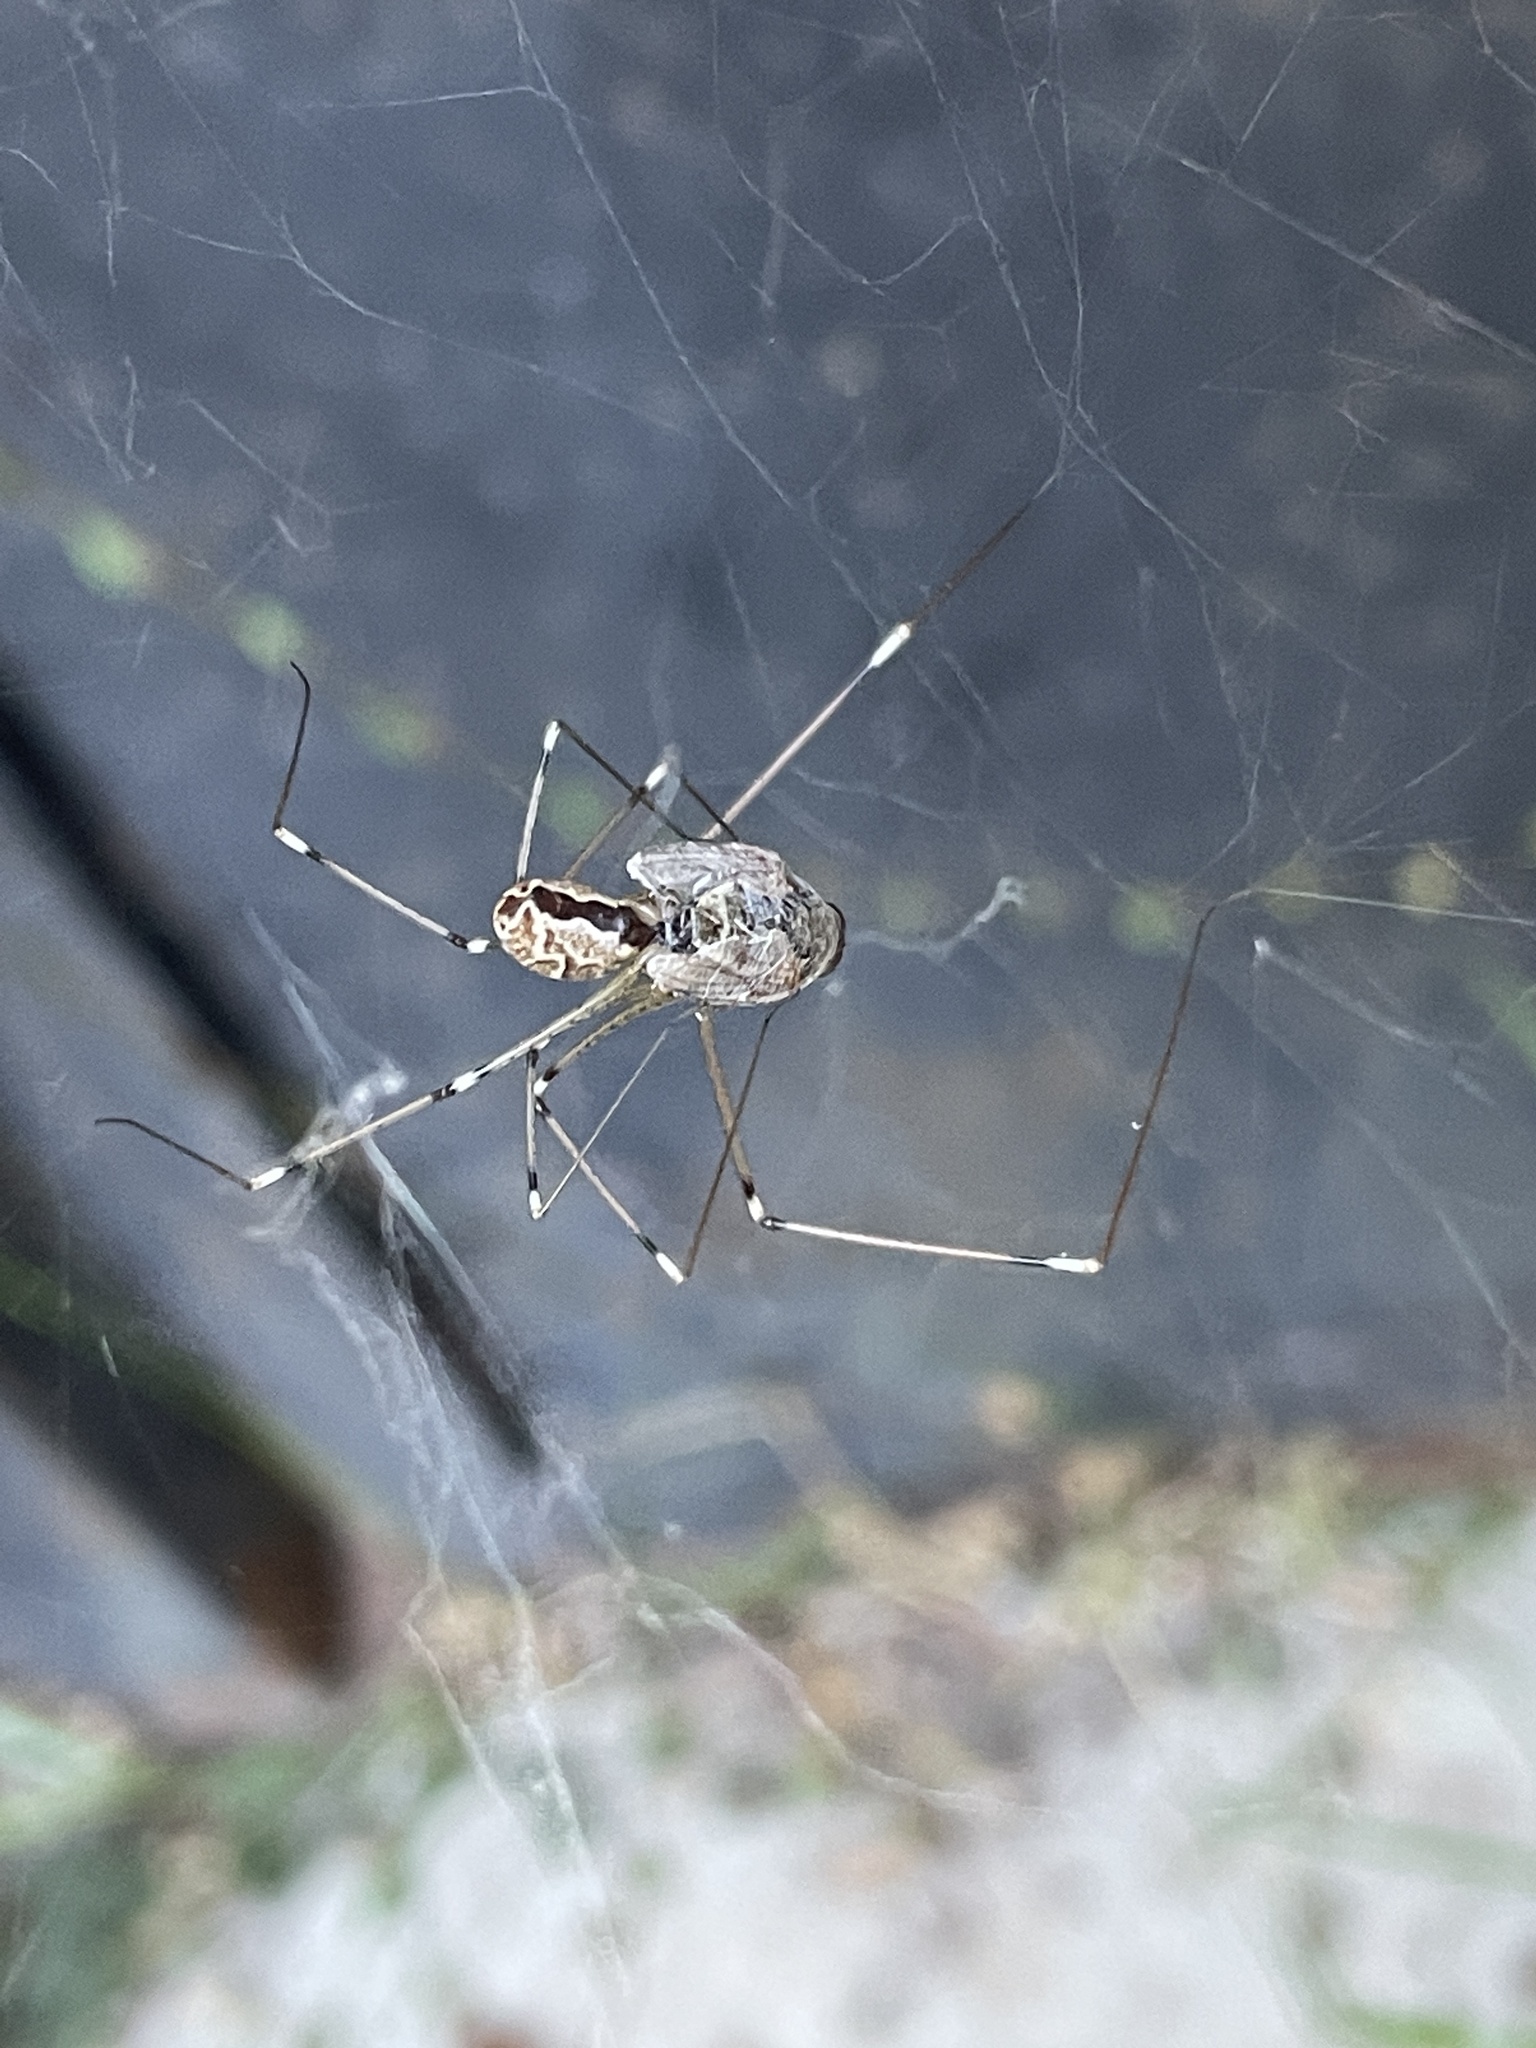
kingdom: Animalia
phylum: Arthropoda
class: Arachnida
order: Araneae
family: Pholcidae
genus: Holocnemus
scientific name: Holocnemus pluchei
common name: Marbled cellar spider
